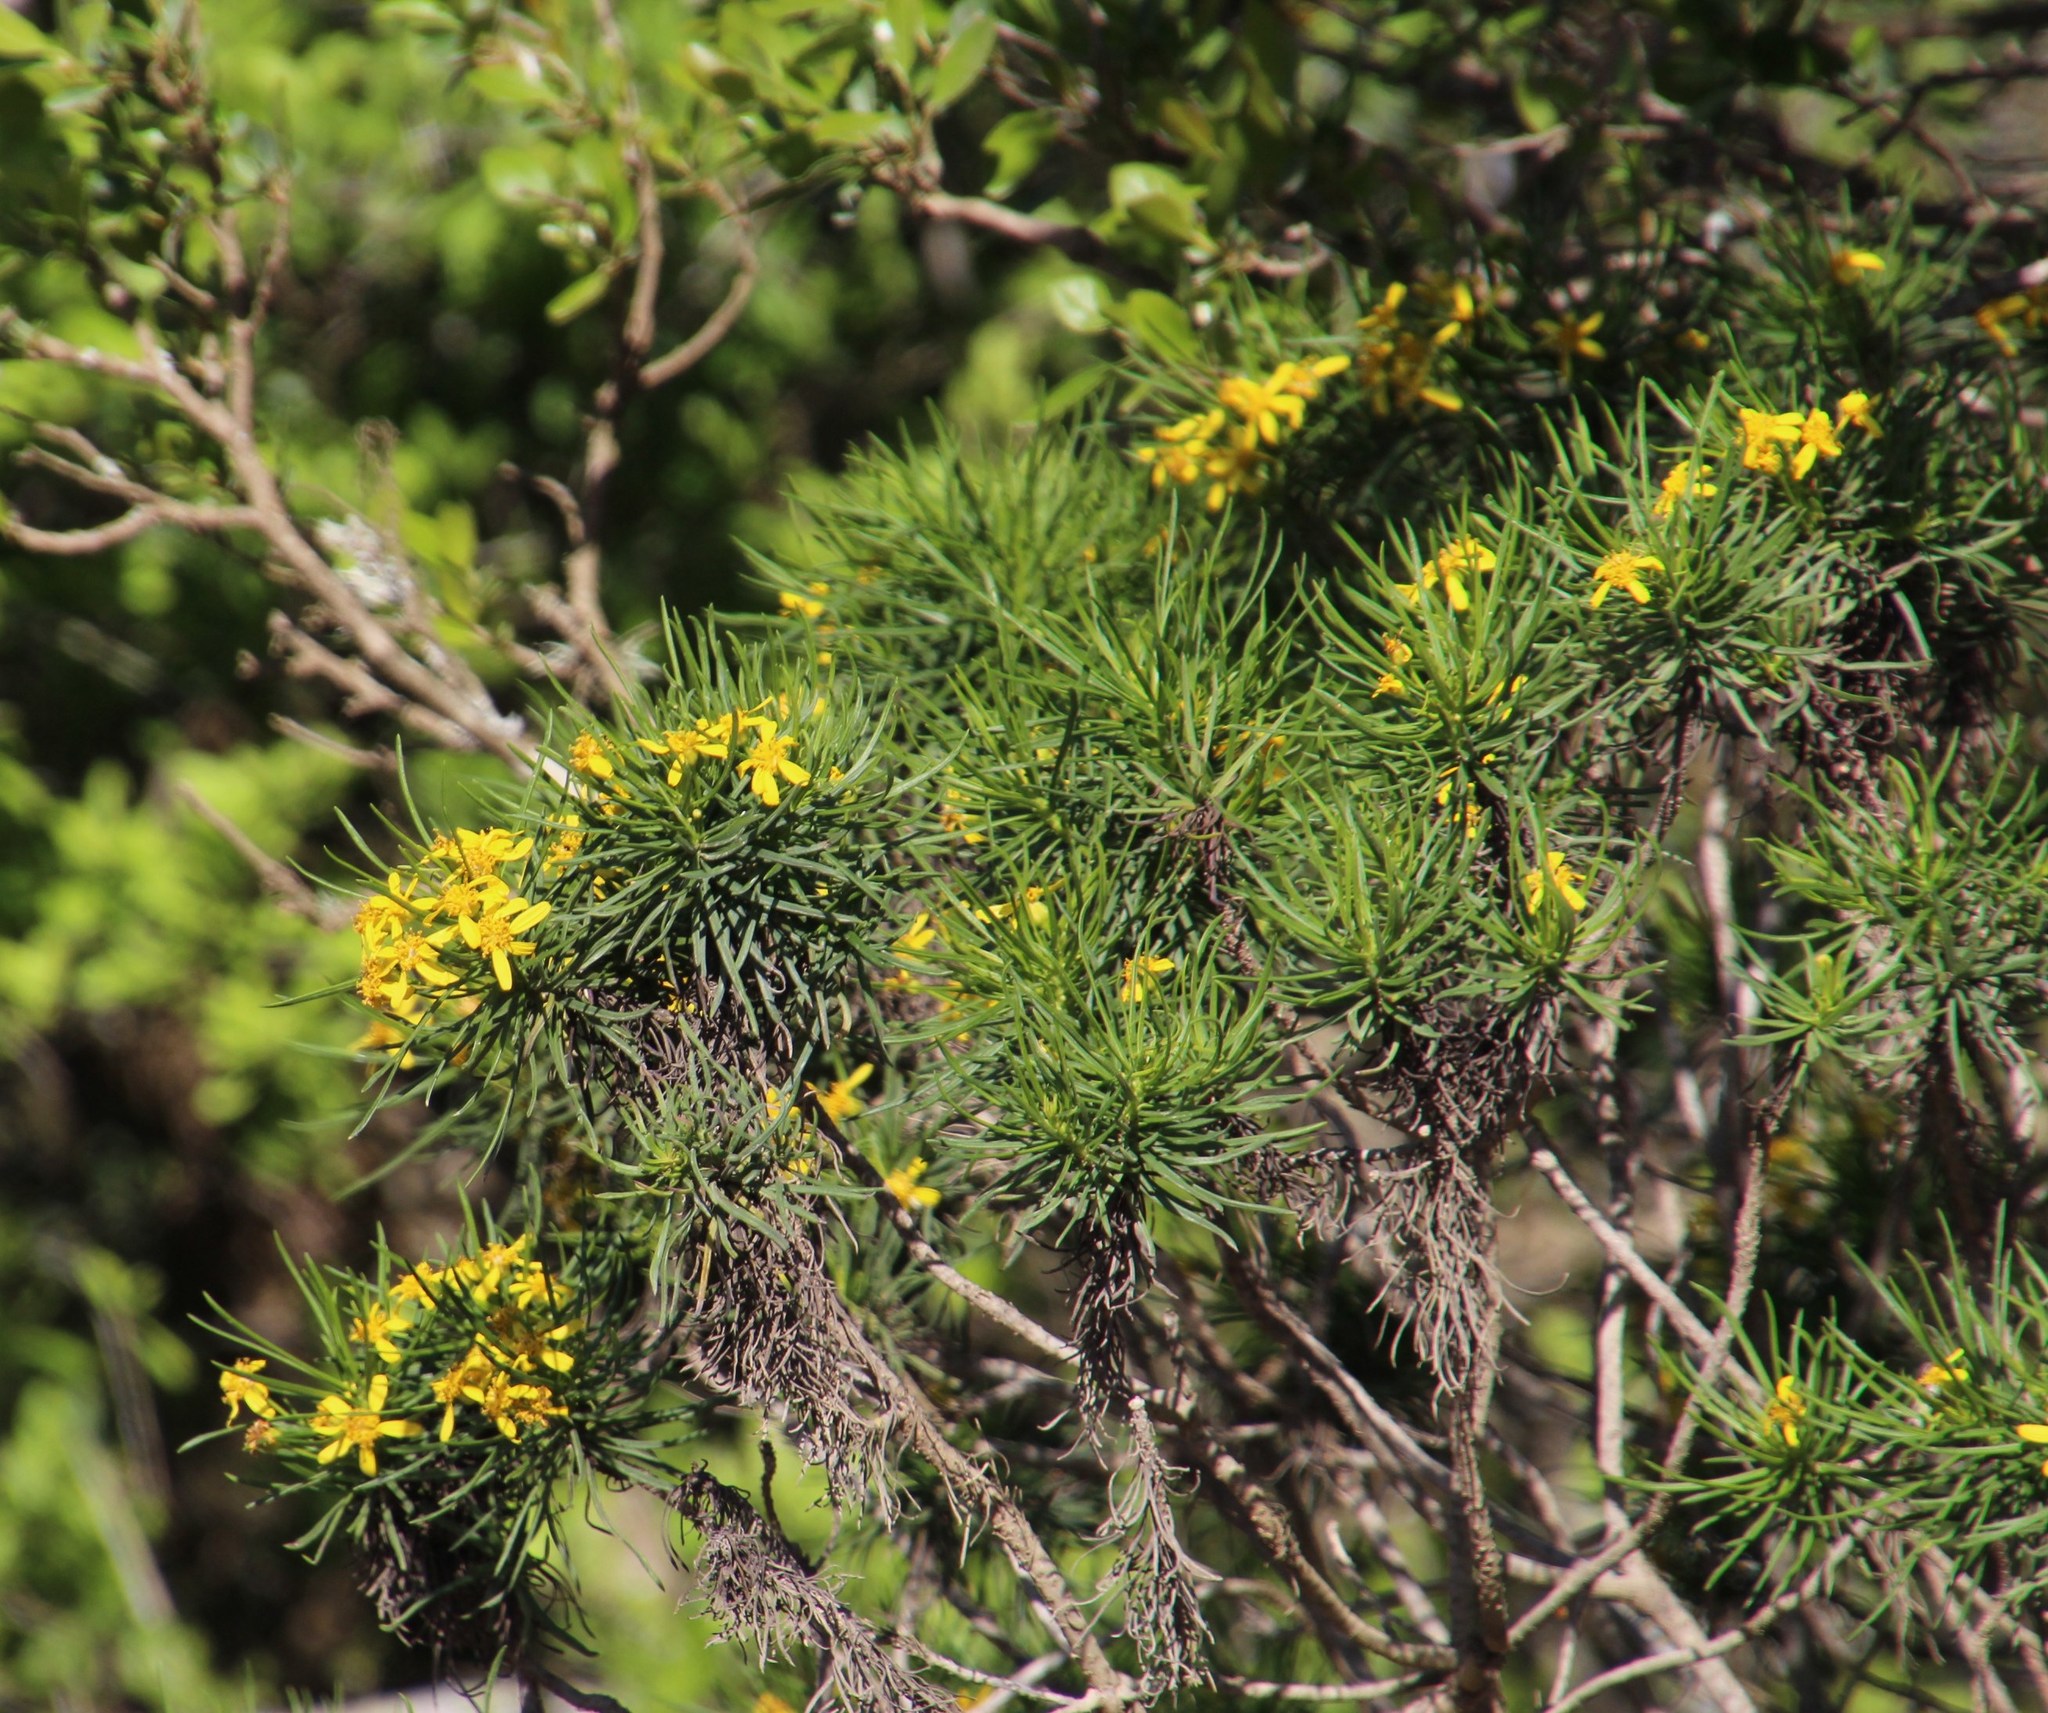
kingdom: Plantae
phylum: Tracheophyta
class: Magnoliopsida
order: Asterales
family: Asteraceae
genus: Euryops
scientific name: Euryops brevipapposus
